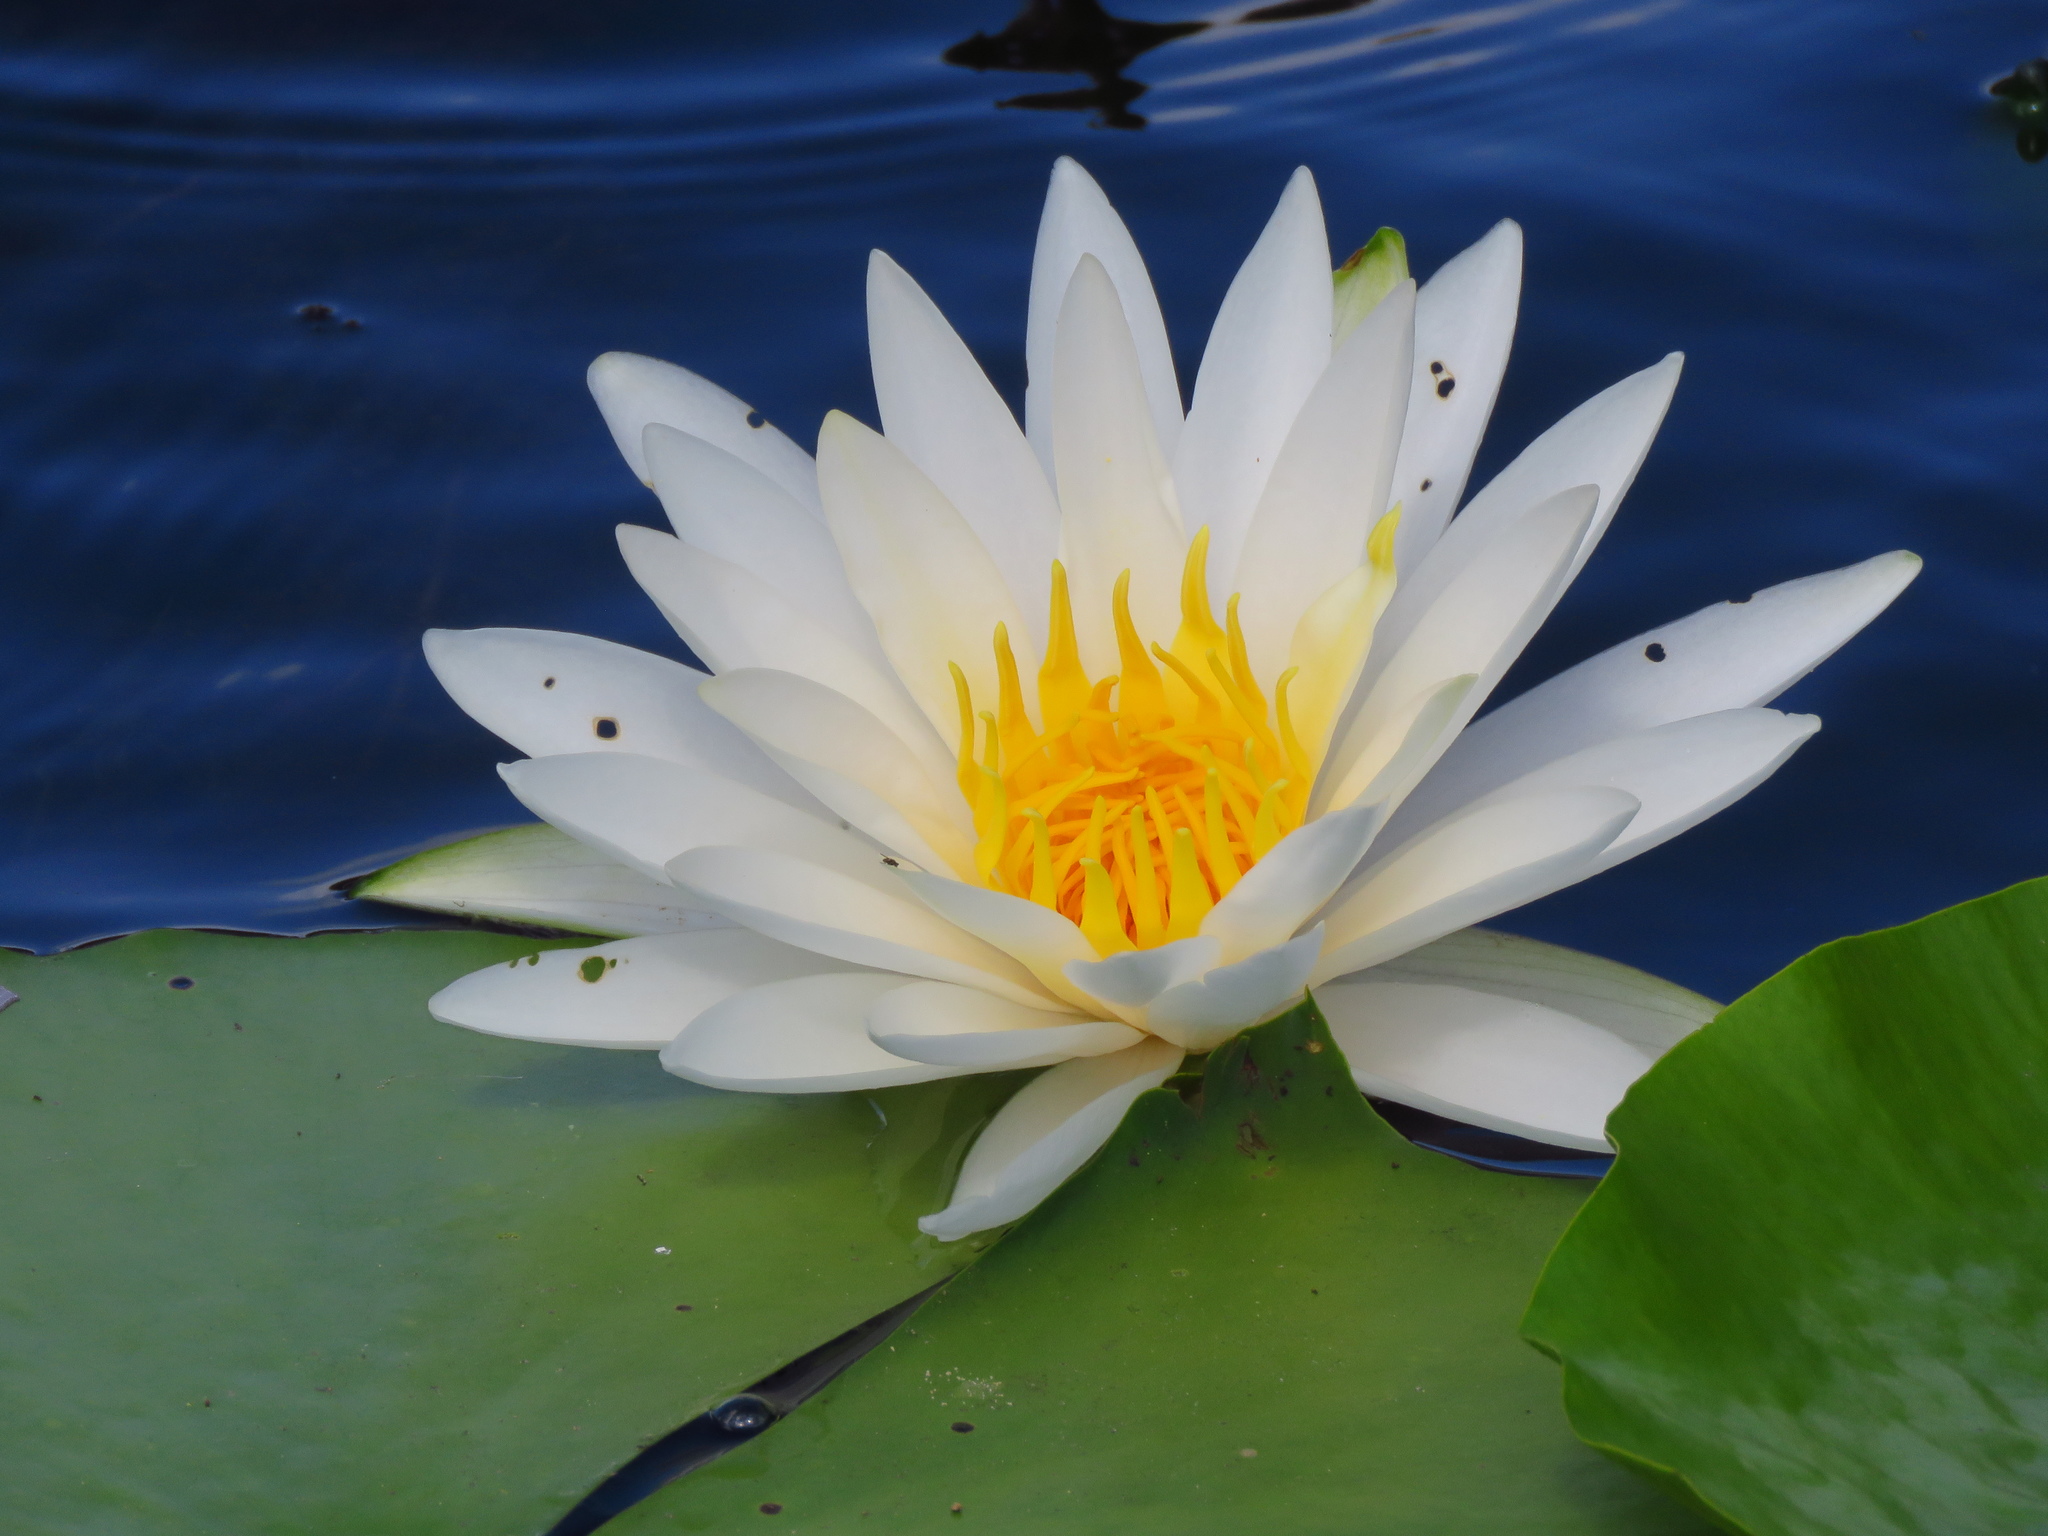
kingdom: Plantae
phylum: Tracheophyta
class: Magnoliopsida
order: Nymphaeales
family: Nymphaeaceae
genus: Nymphaea
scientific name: Nymphaea odorata
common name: Fragrant water-lily
